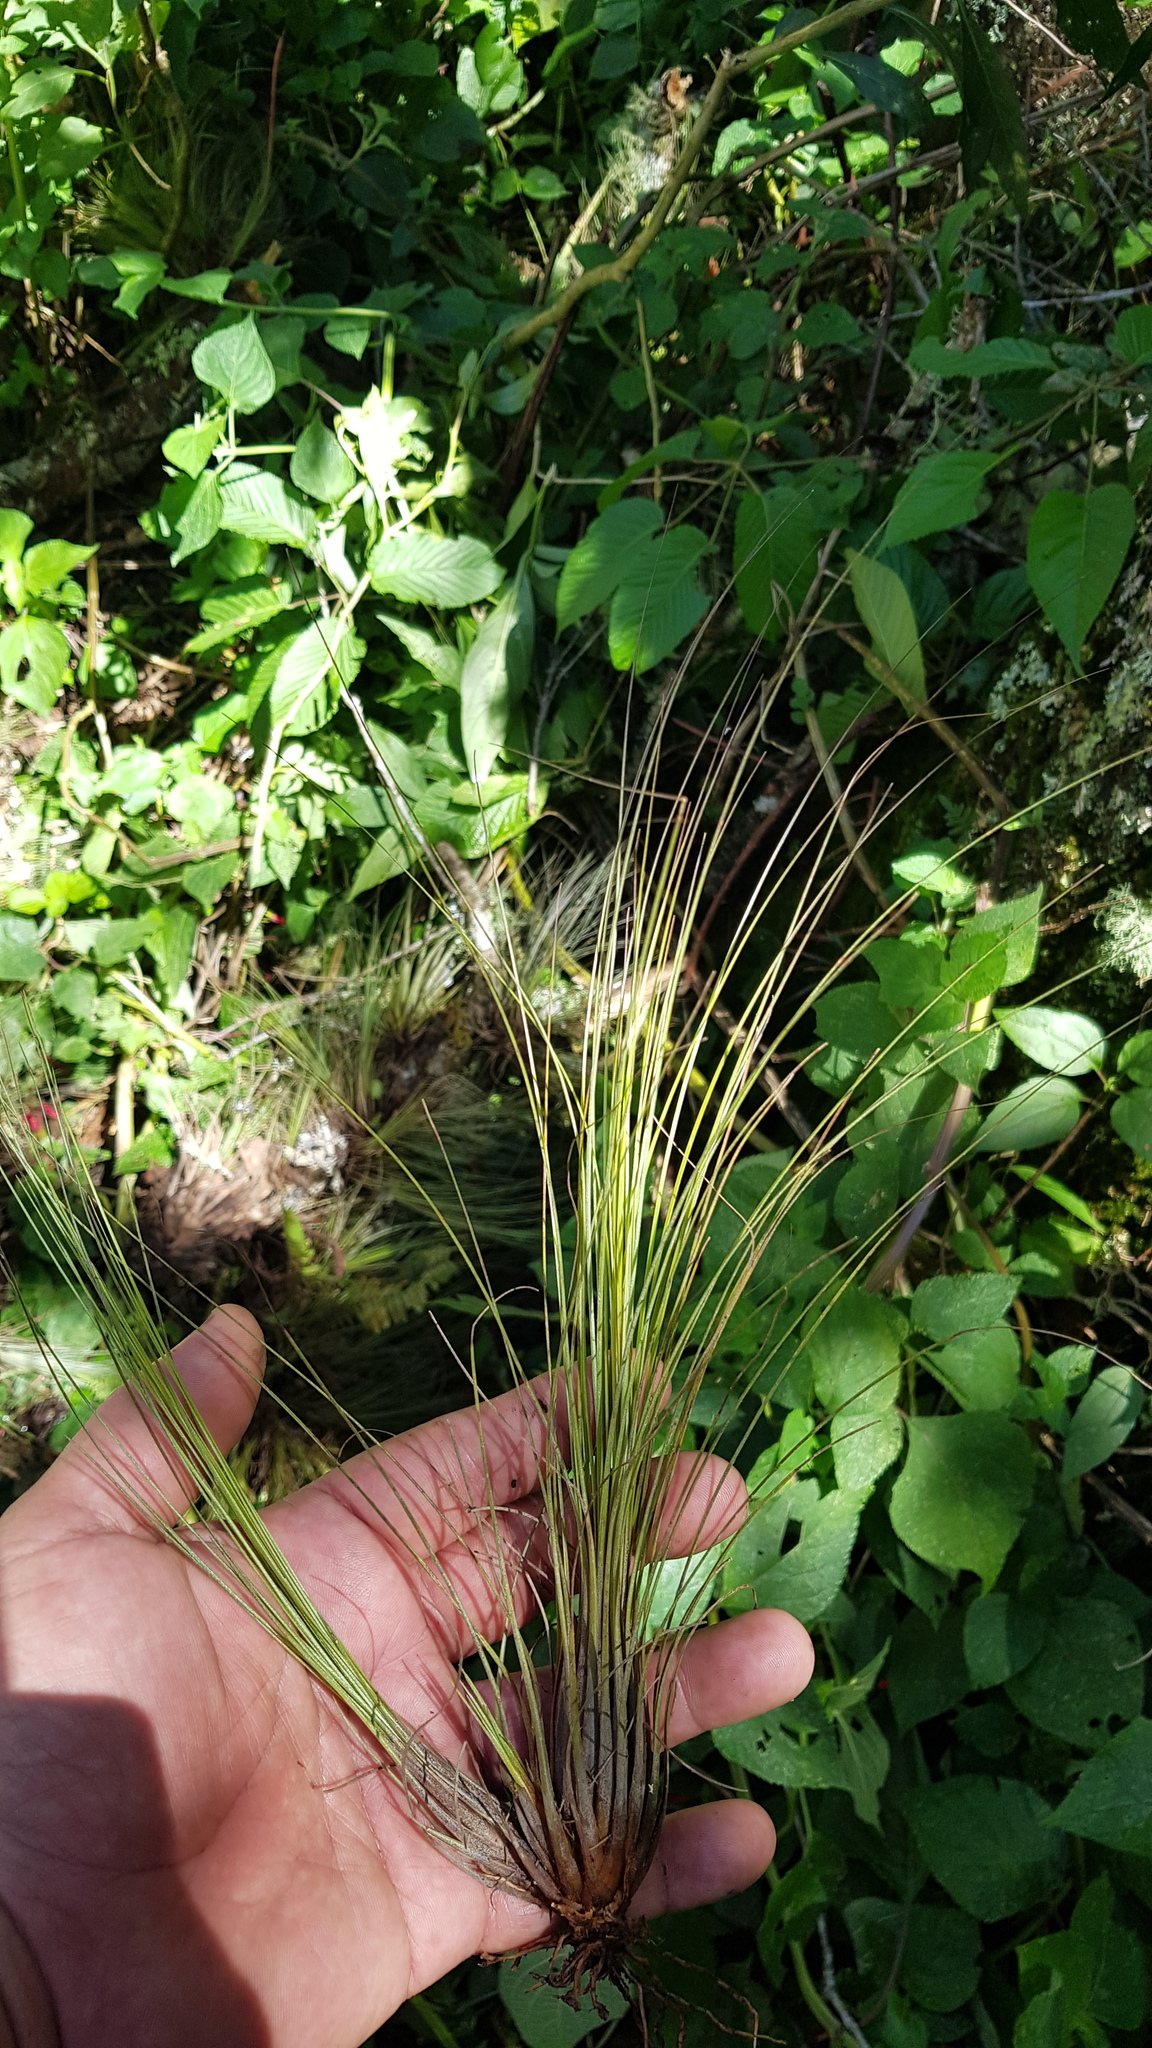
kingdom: Plantae
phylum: Tracheophyta
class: Liliopsida
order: Poales
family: Bromeliaceae
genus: Tillandsia
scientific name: Tillandsia chaetophylla
